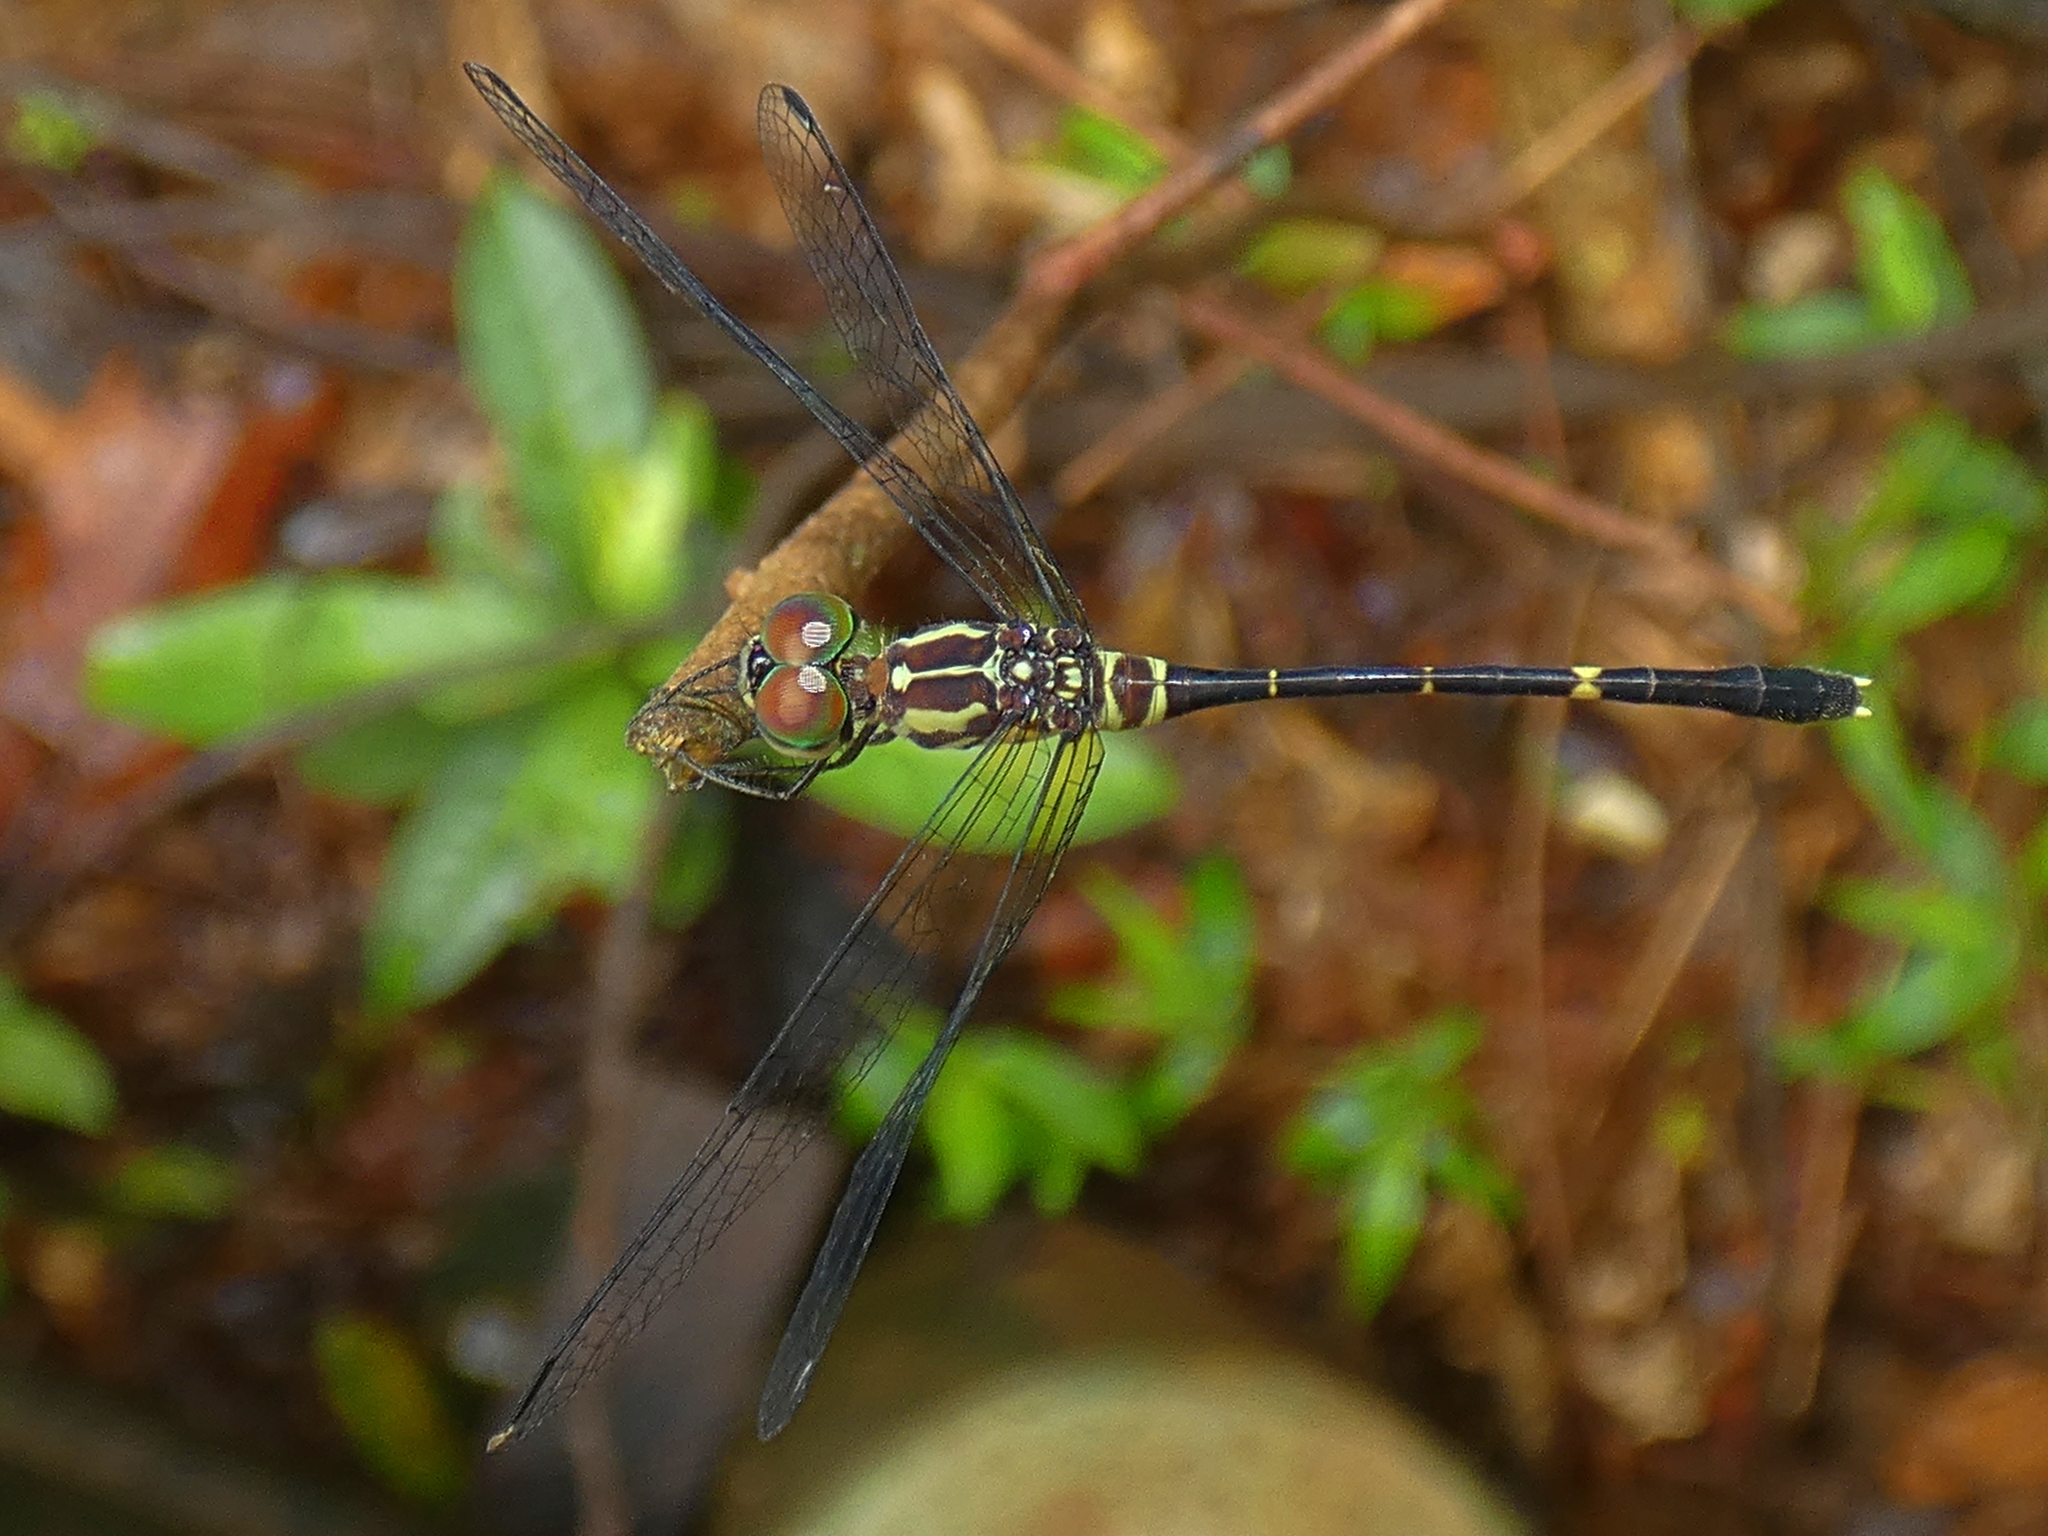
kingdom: Animalia
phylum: Arthropoda
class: Insecta
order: Odonata
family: Libellulidae
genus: Nannophlebia
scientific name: Nannophlebia eludens
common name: Elusive archtail
